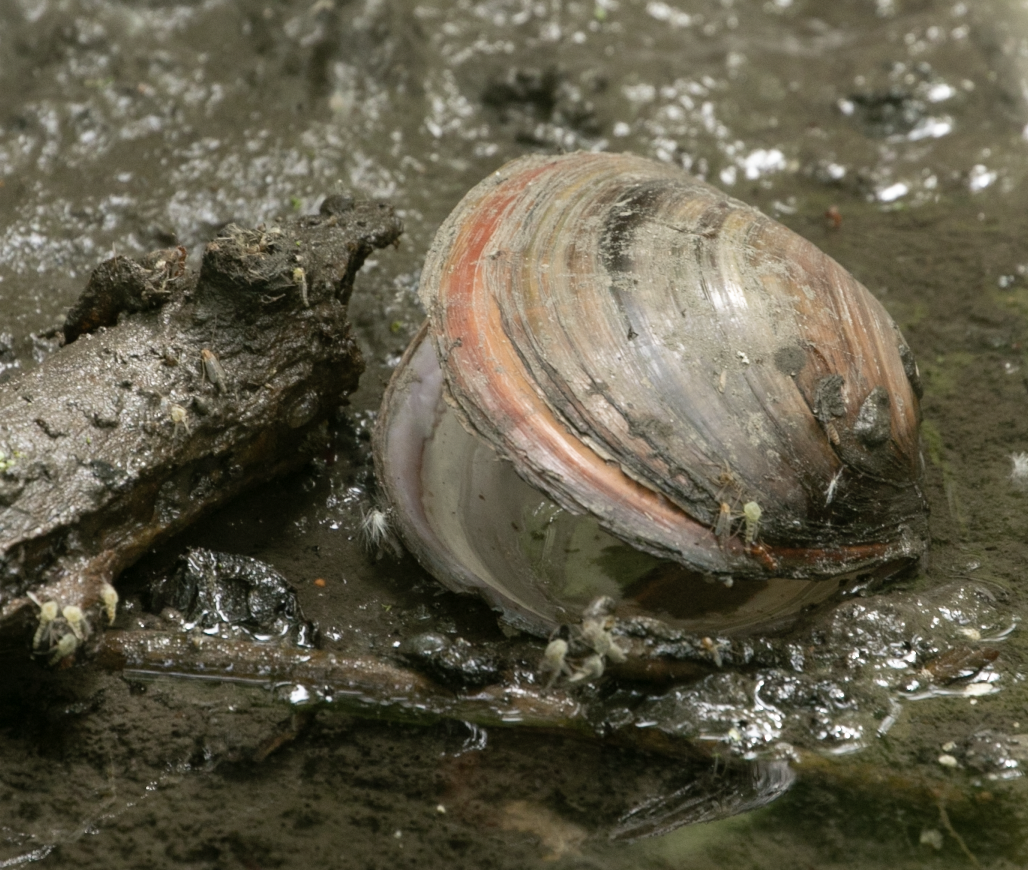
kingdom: Animalia
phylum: Mollusca
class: Bivalvia
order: Unionida
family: Unionidae
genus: Sinanodonta
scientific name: Sinanodonta woodiana
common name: Chinese pond mussel
